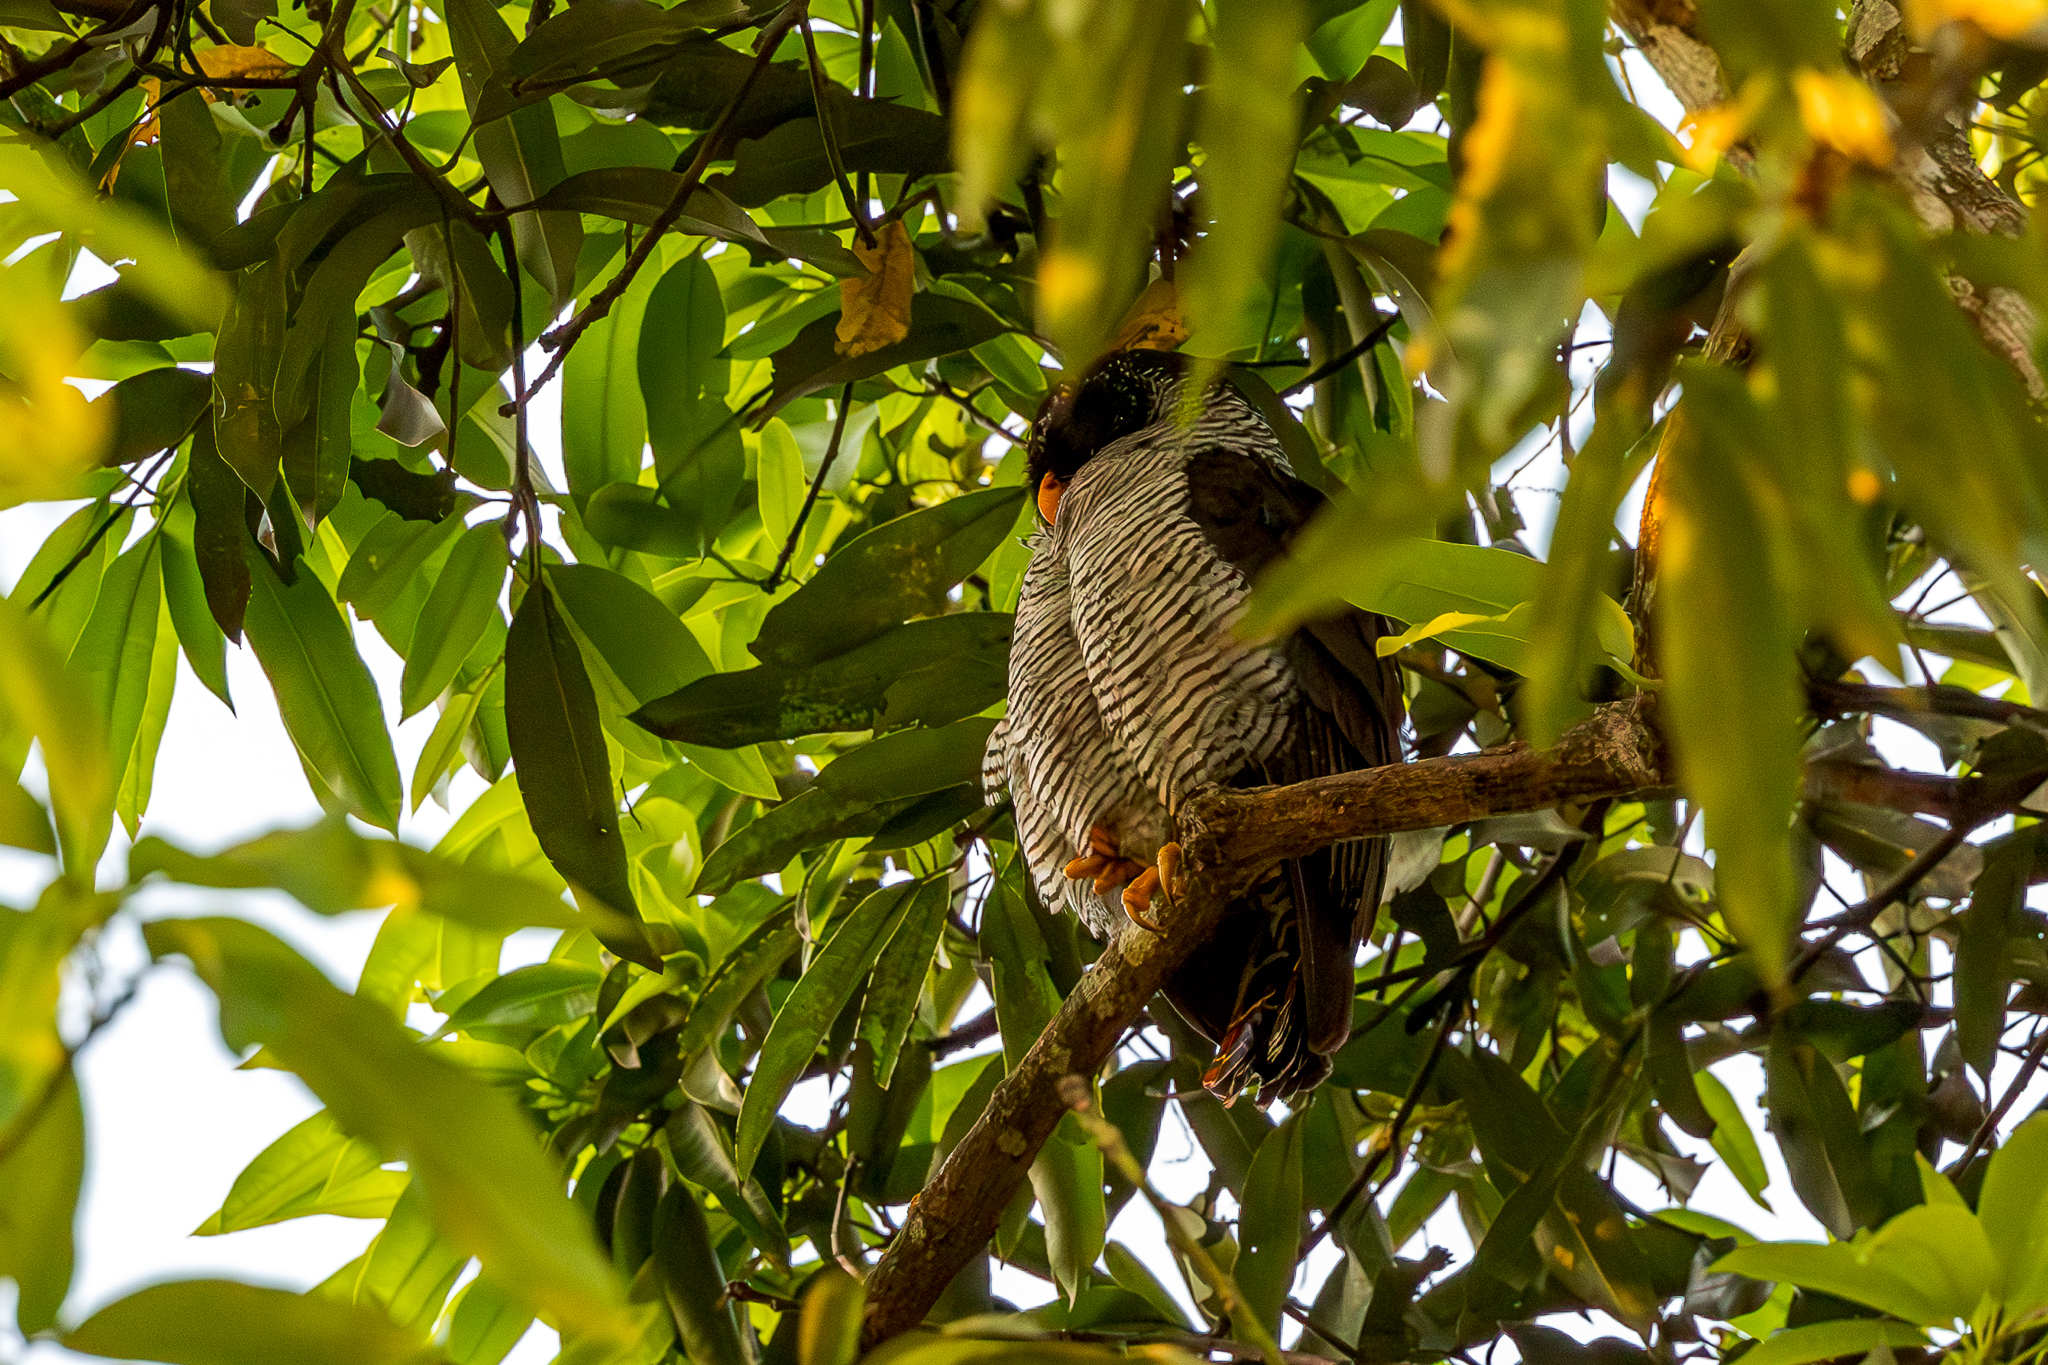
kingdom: Animalia
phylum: Chordata
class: Aves
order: Strigiformes
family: Strigidae
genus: Strix
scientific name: Strix nigrolineata
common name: Black-and-white owl
